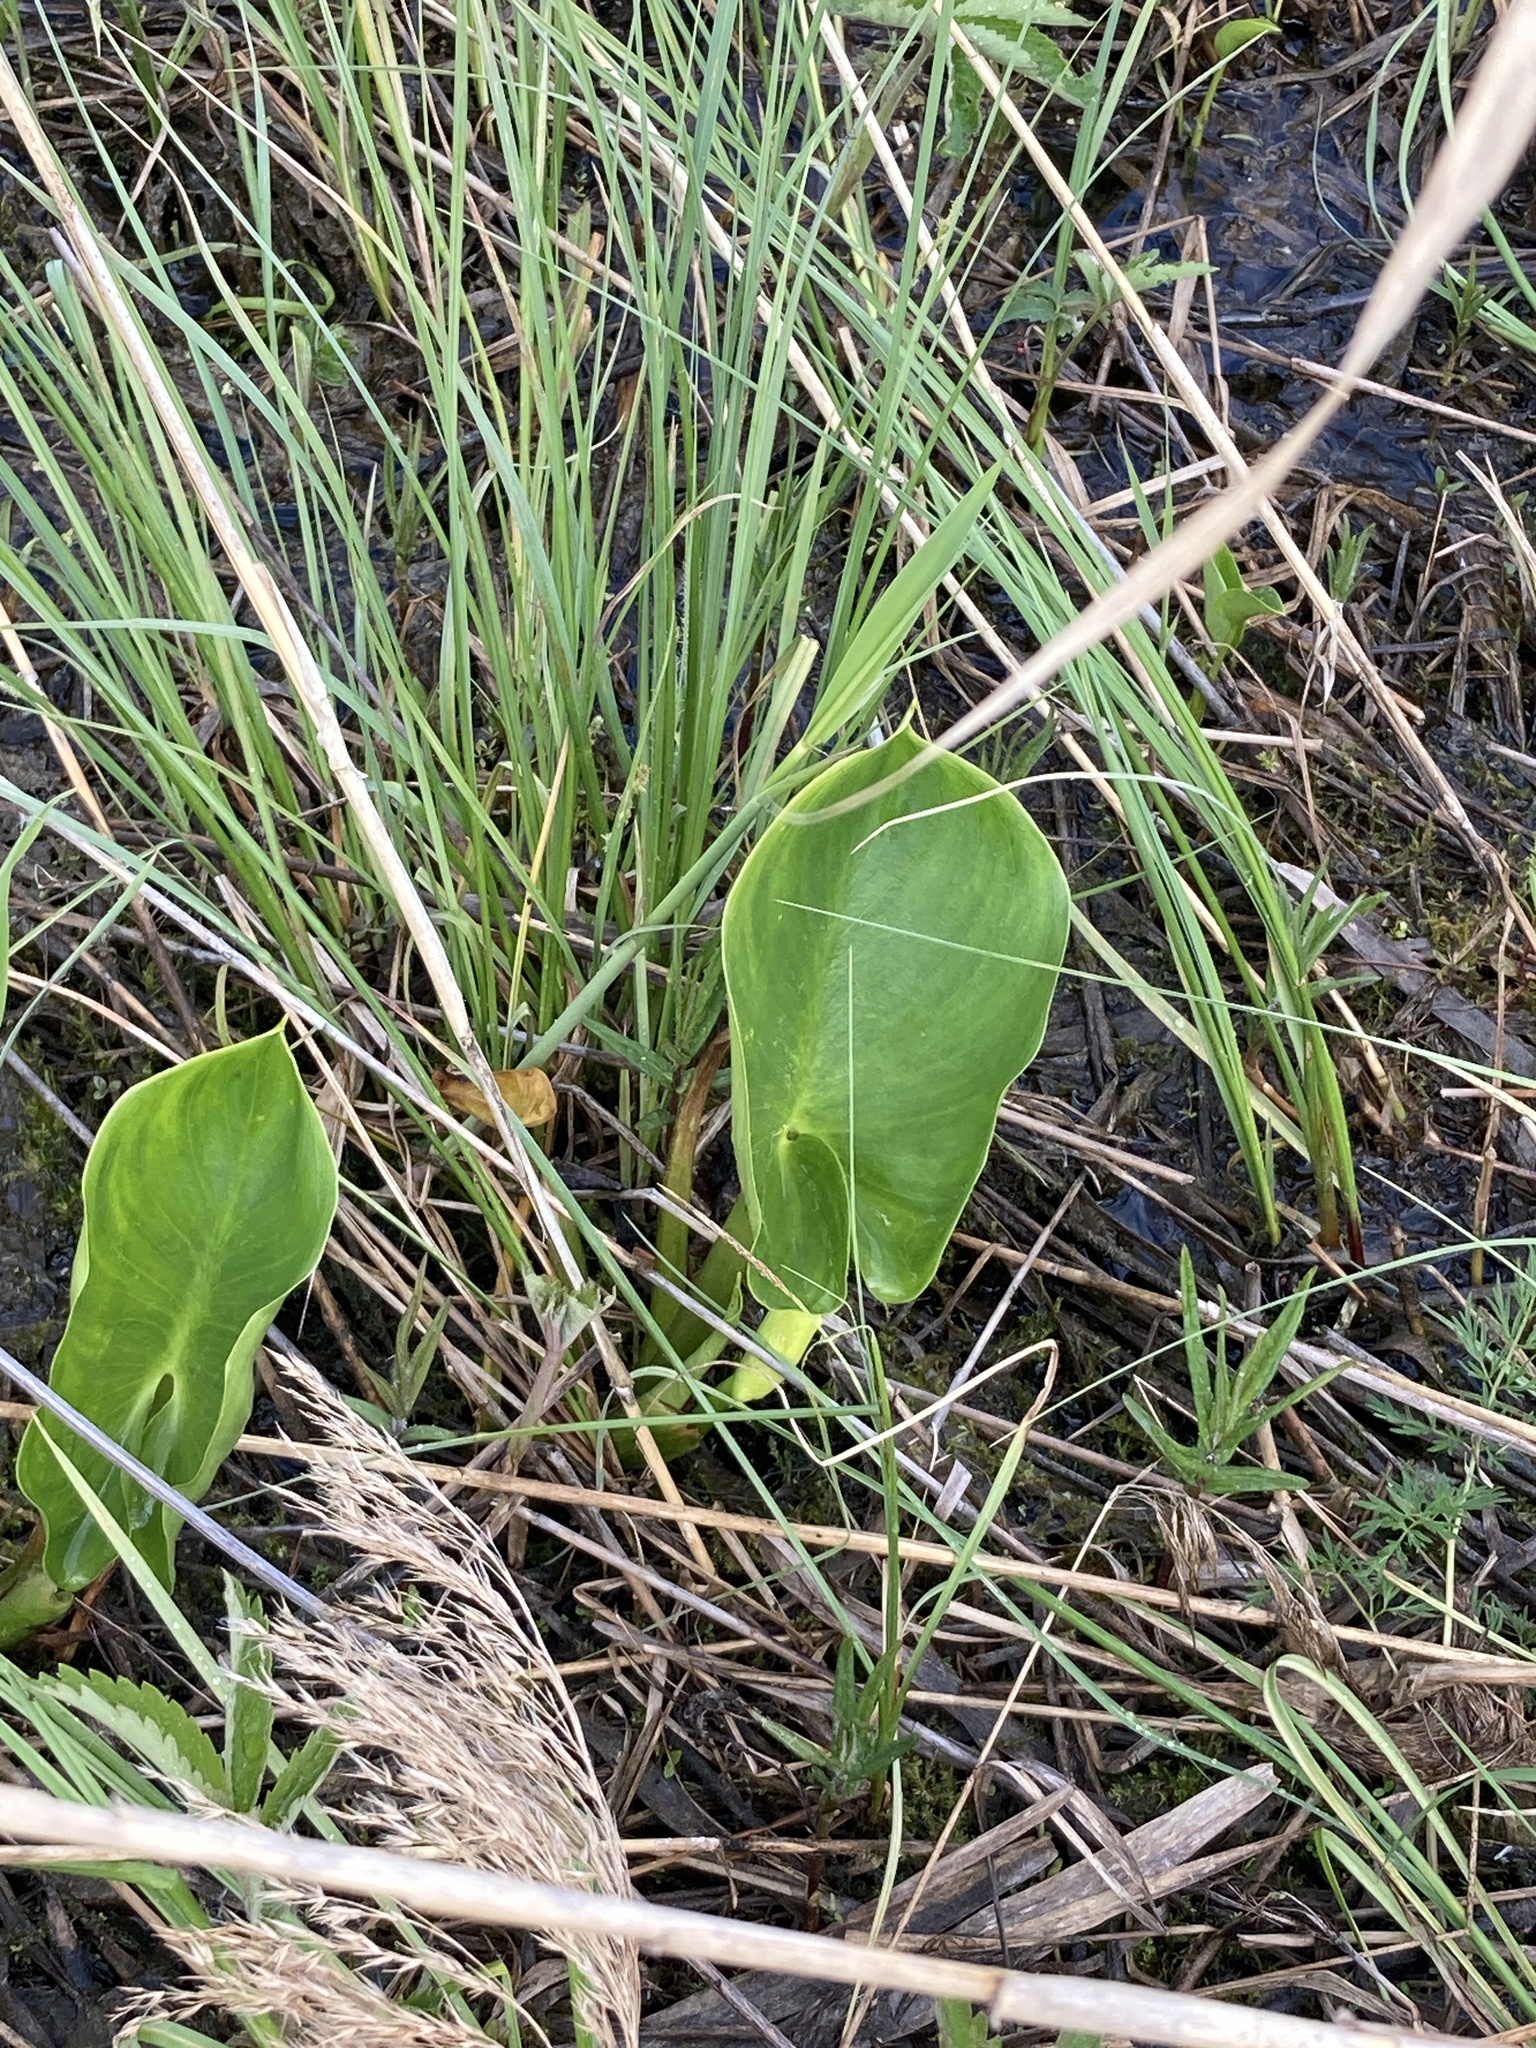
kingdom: Plantae
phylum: Tracheophyta
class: Liliopsida
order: Alismatales
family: Araceae
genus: Calla
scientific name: Calla palustris
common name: Bog arum
